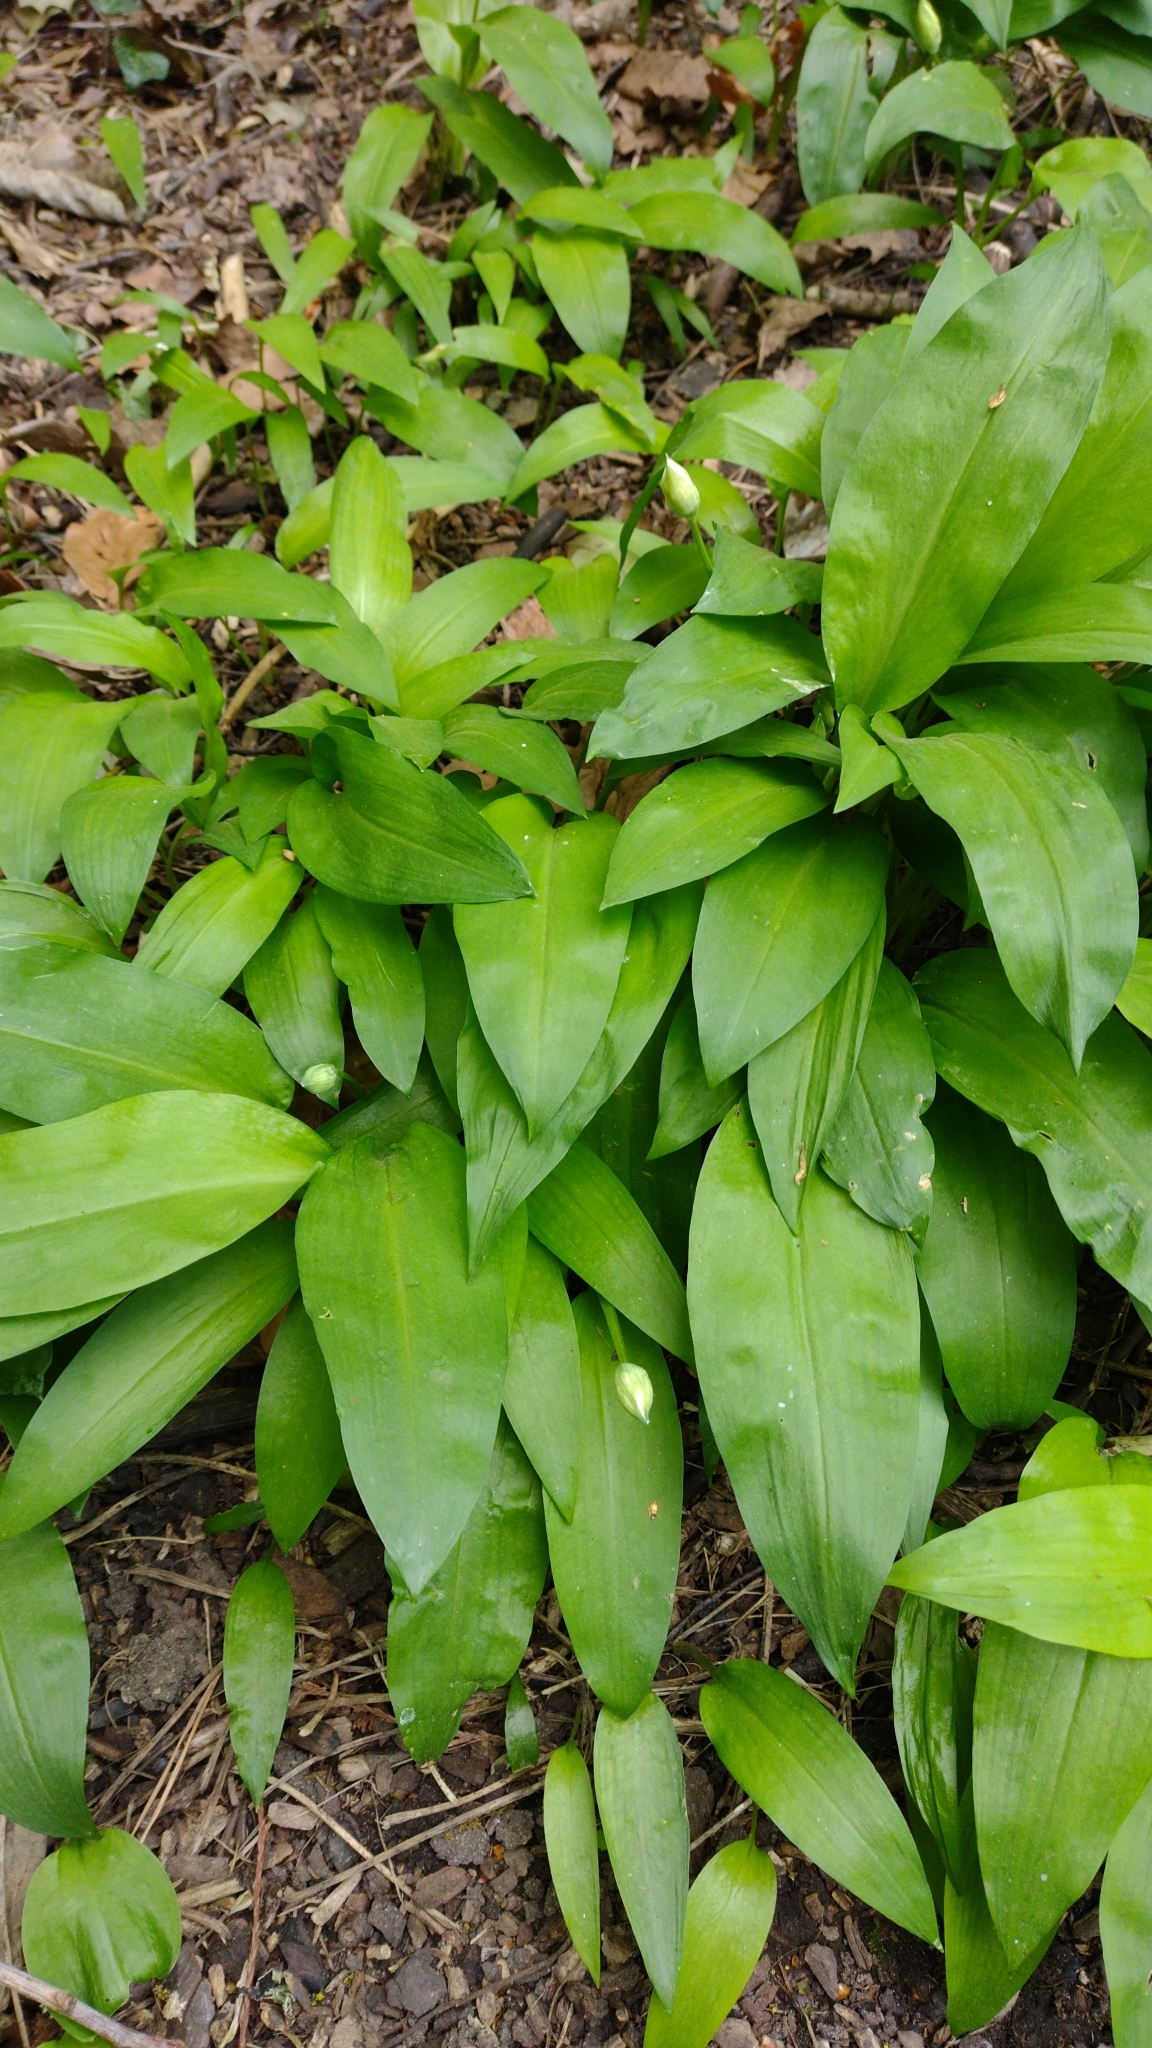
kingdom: Plantae
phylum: Tracheophyta
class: Liliopsida
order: Asparagales
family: Amaryllidaceae
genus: Allium
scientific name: Allium ursinum
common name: Ramsons
